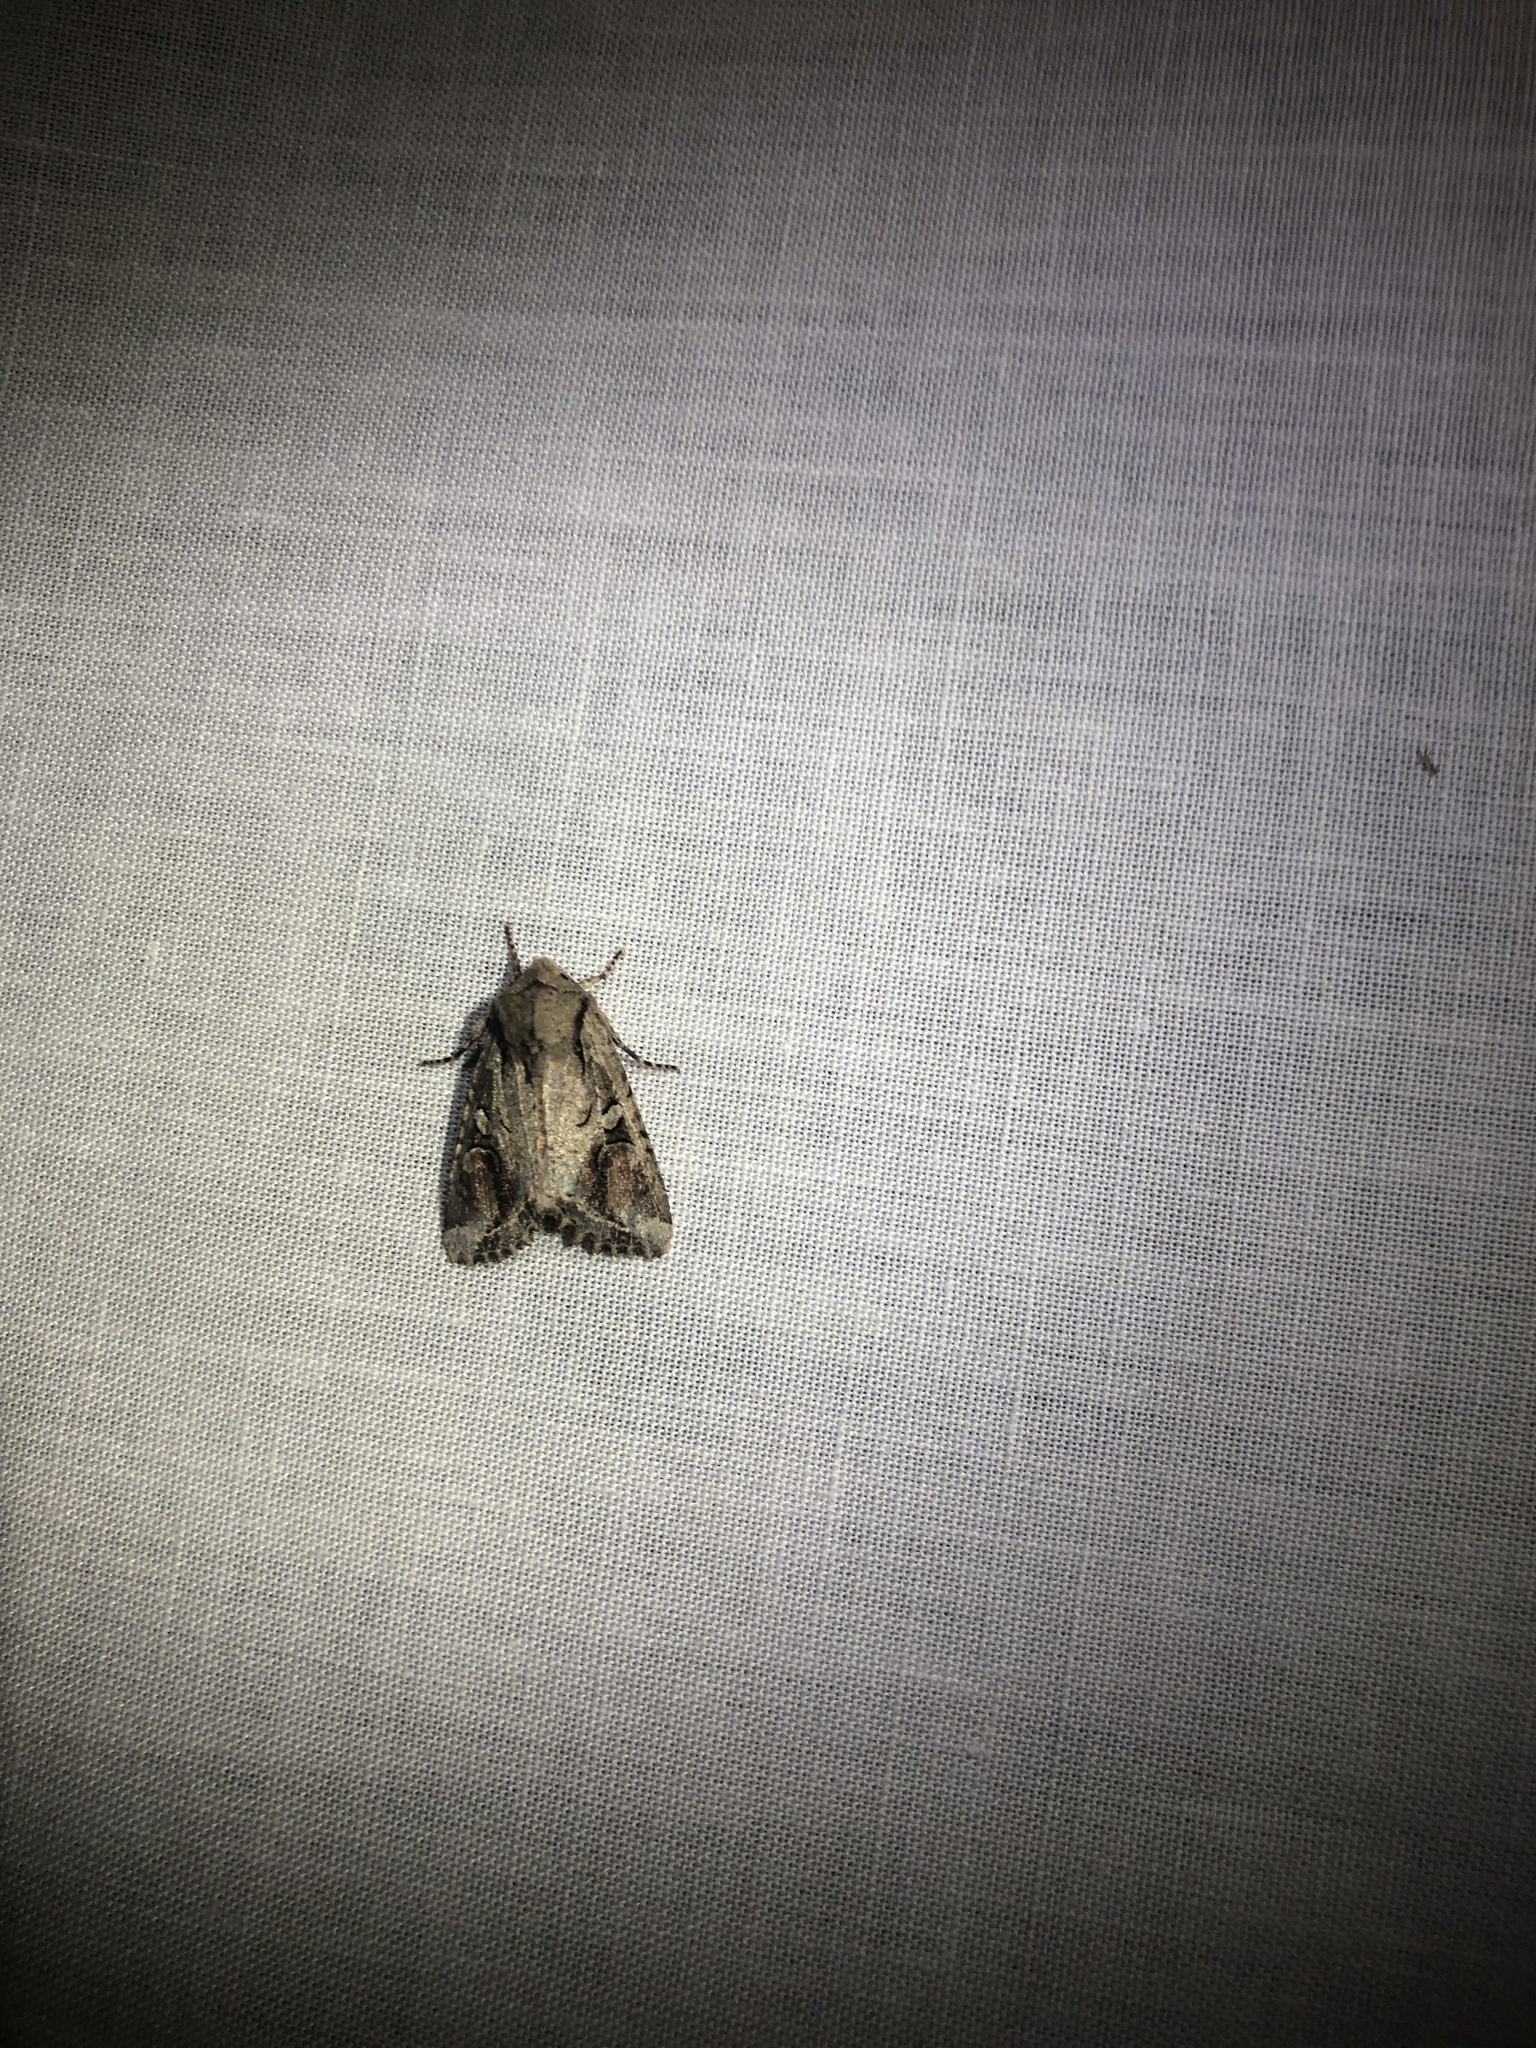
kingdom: Animalia
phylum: Arthropoda
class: Insecta
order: Lepidoptera
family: Noctuidae
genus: Egira
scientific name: Egira rubrica
